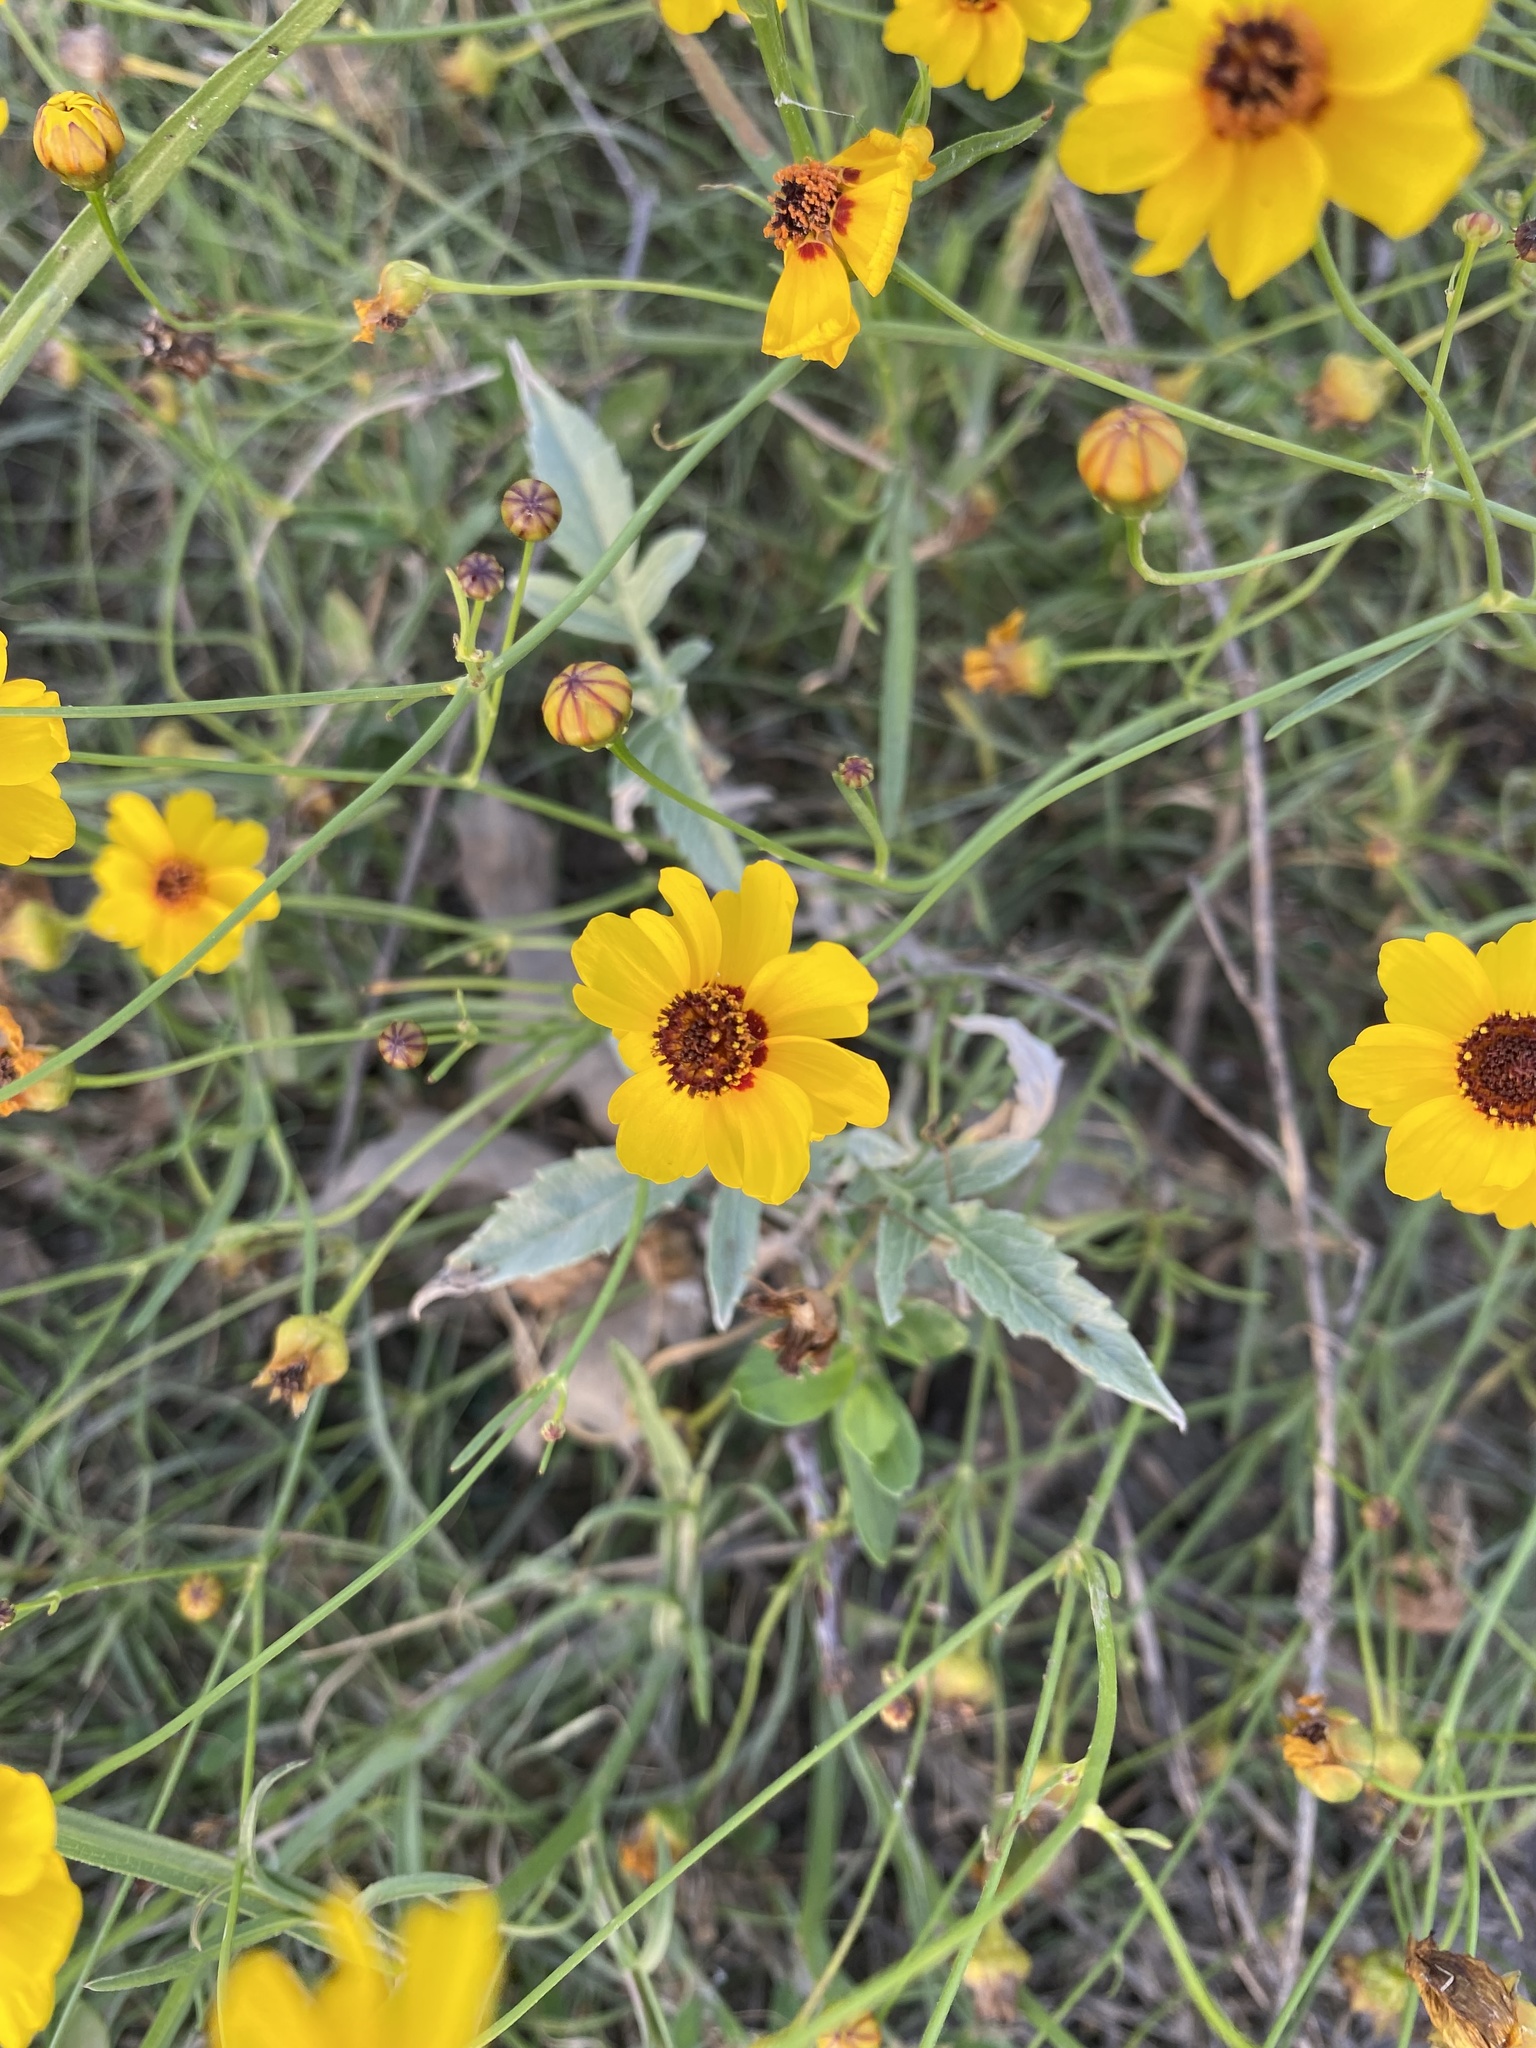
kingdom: Plantae
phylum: Tracheophyta
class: Magnoliopsida
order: Asterales
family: Asteraceae
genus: Thelesperma
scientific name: Thelesperma filifolium
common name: Stiff greenthread
